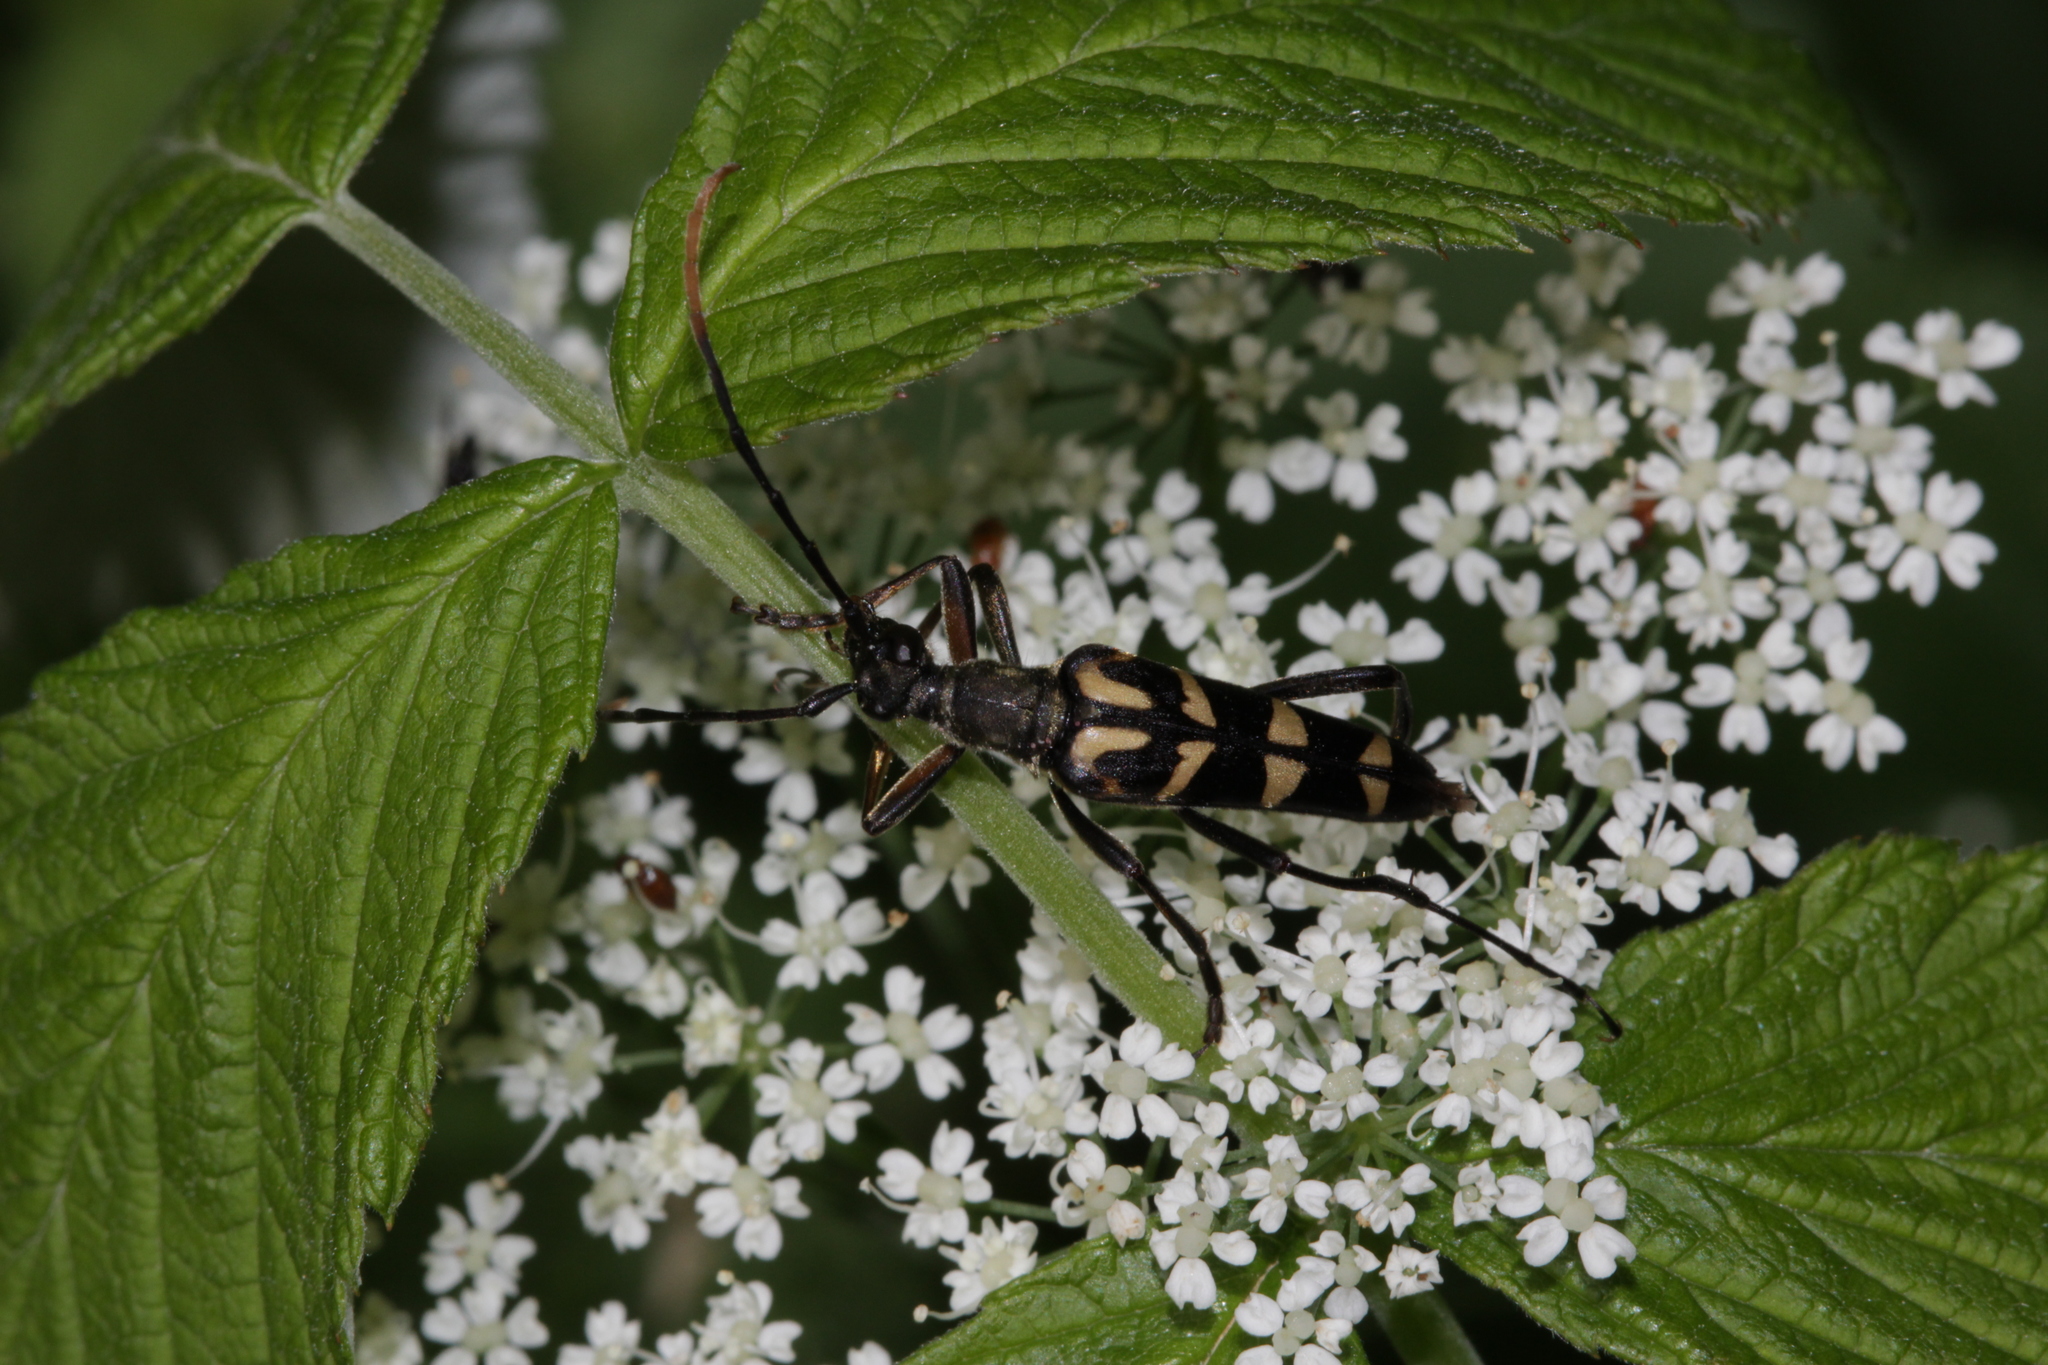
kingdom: Animalia
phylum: Arthropoda
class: Insecta
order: Coleoptera
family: Cerambycidae
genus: Leptura
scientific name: Leptura annularis
